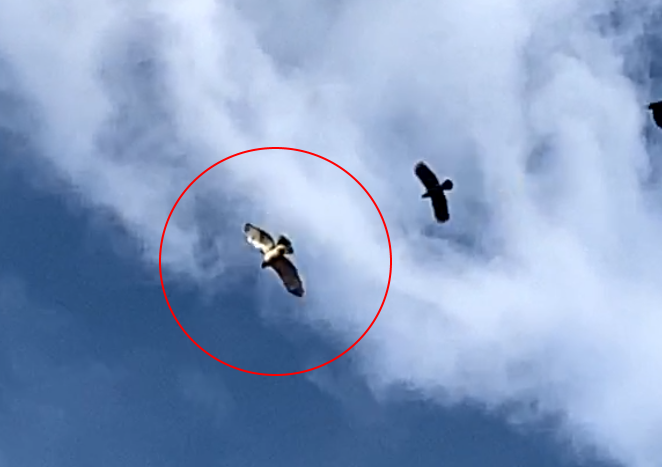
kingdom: Animalia
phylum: Chordata
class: Aves
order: Accipitriformes
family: Accipitridae
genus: Buteo
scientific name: Buteo jamaicensis
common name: Red-tailed hawk
